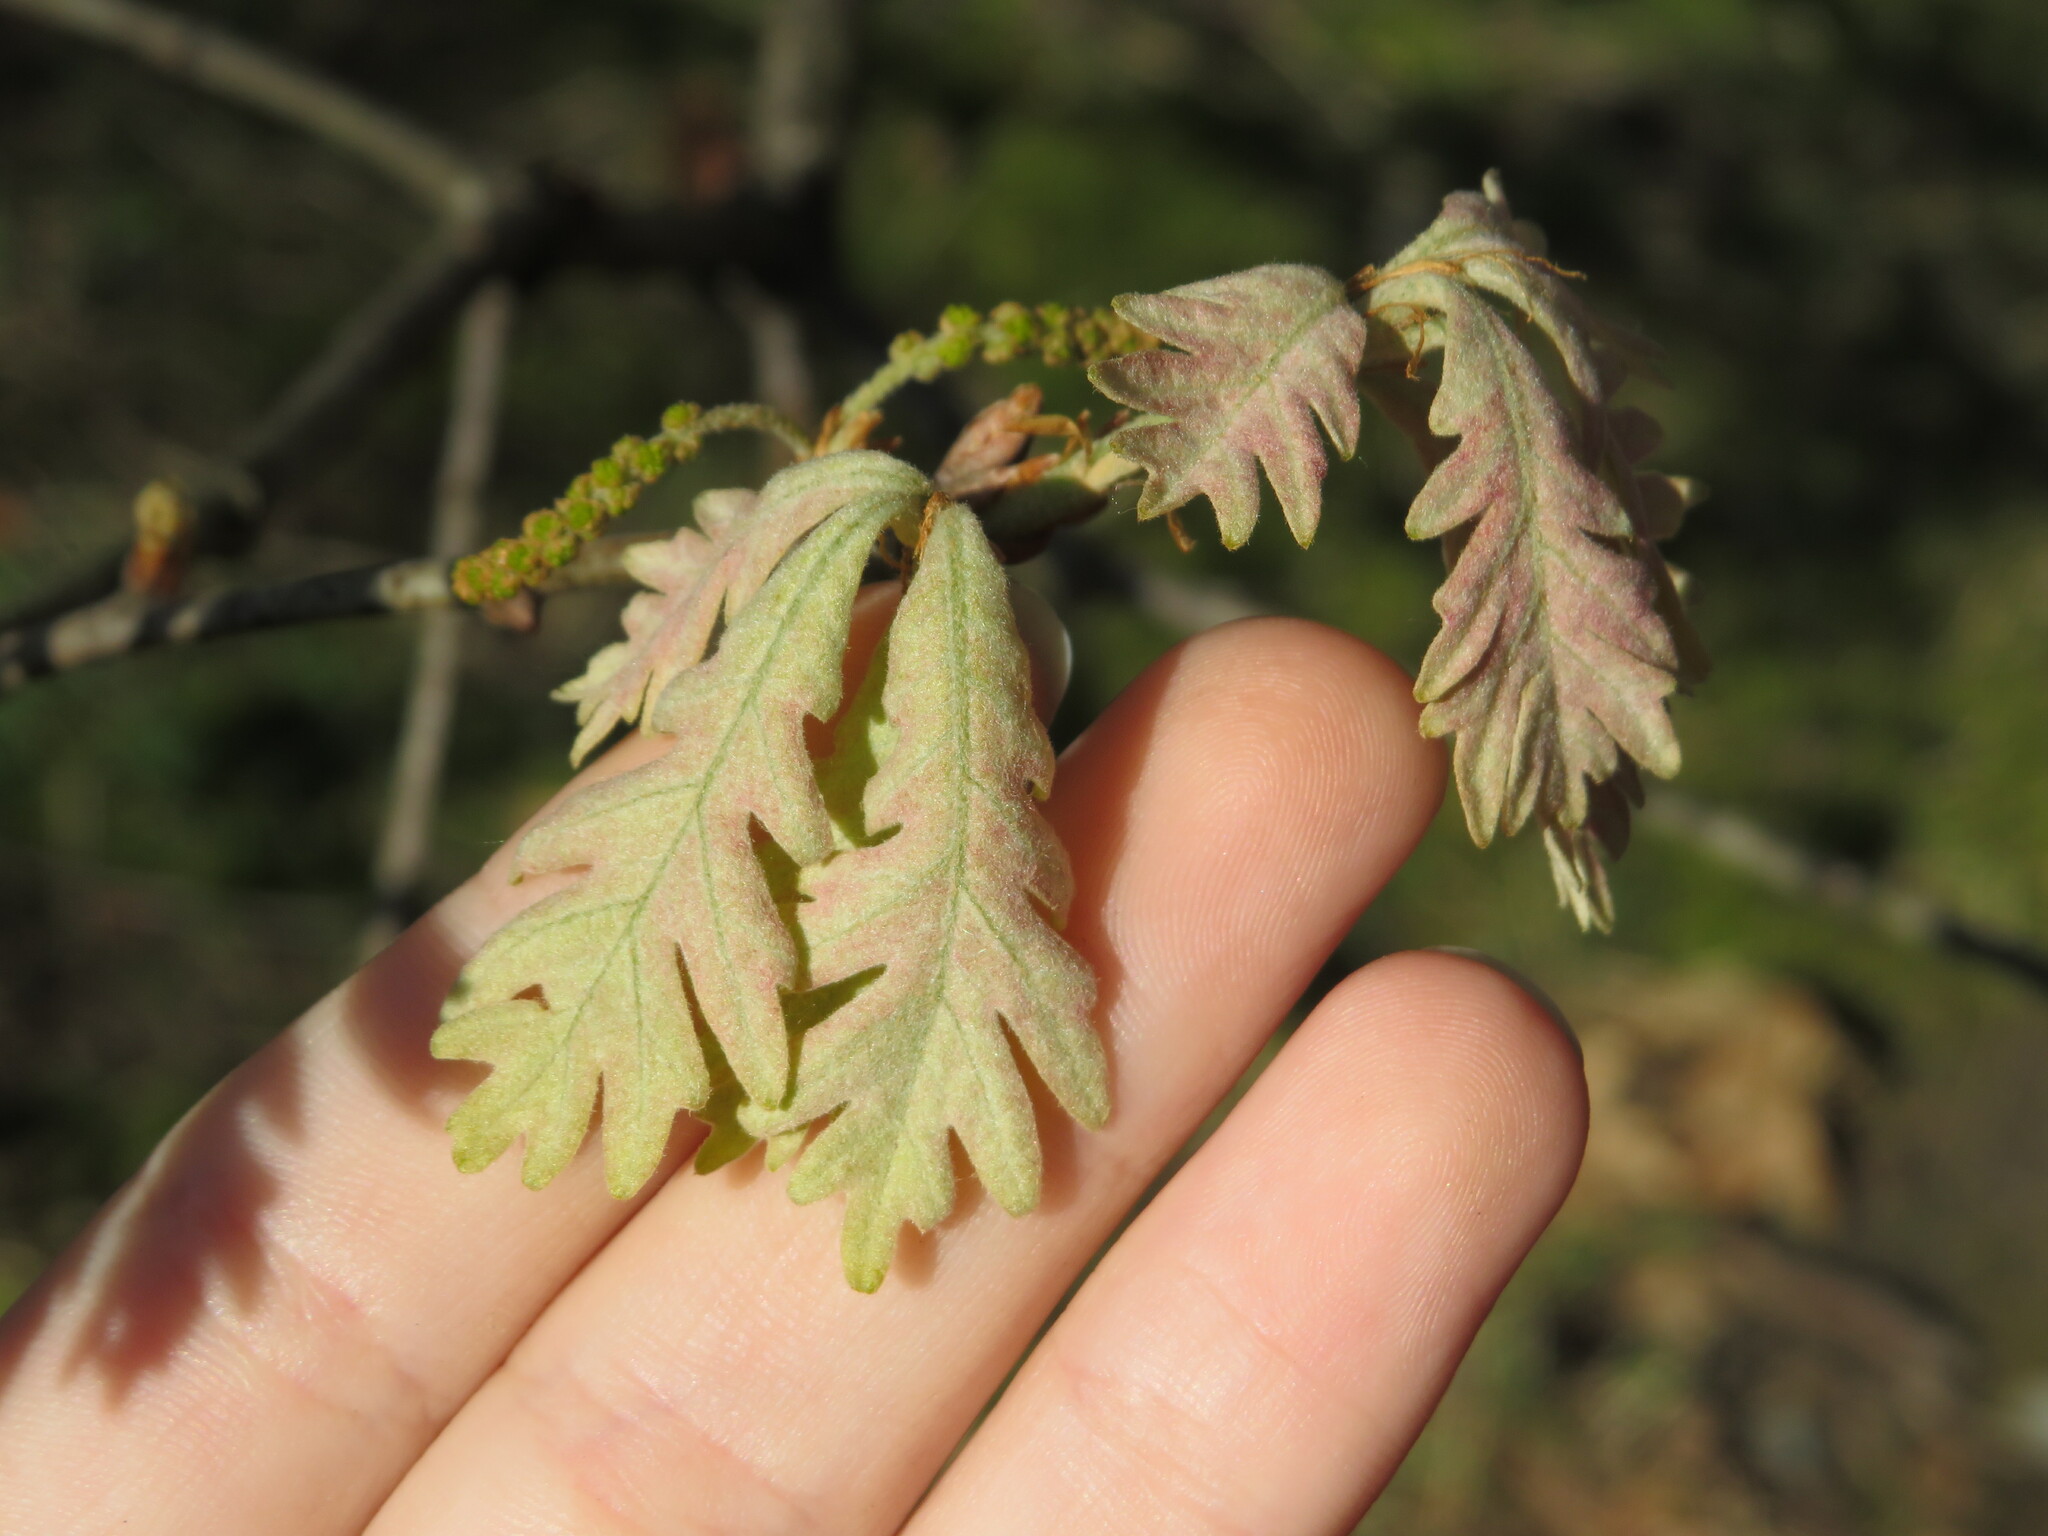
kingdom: Plantae
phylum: Tracheophyta
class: Magnoliopsida
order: Fagales
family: Fagaceae
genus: Quercus
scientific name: Quercus alba
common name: White oak
